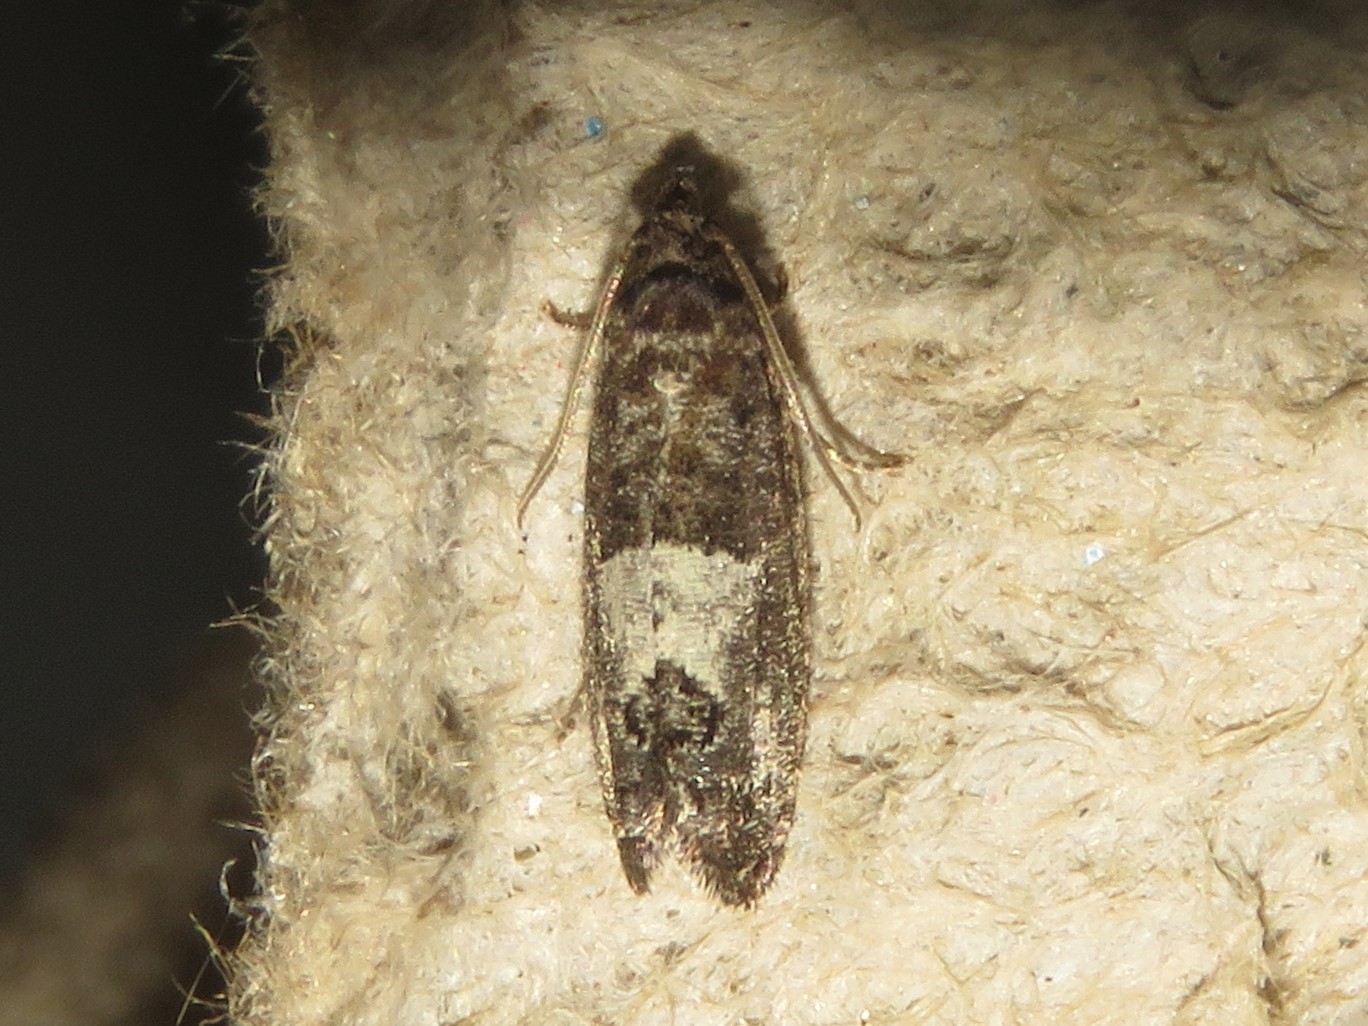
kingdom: Animalia
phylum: Arthropoda
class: Insecta
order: Lepidoptera
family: Tortricidae
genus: Spilonota
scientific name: Spilonota ocellana
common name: Bud moth
